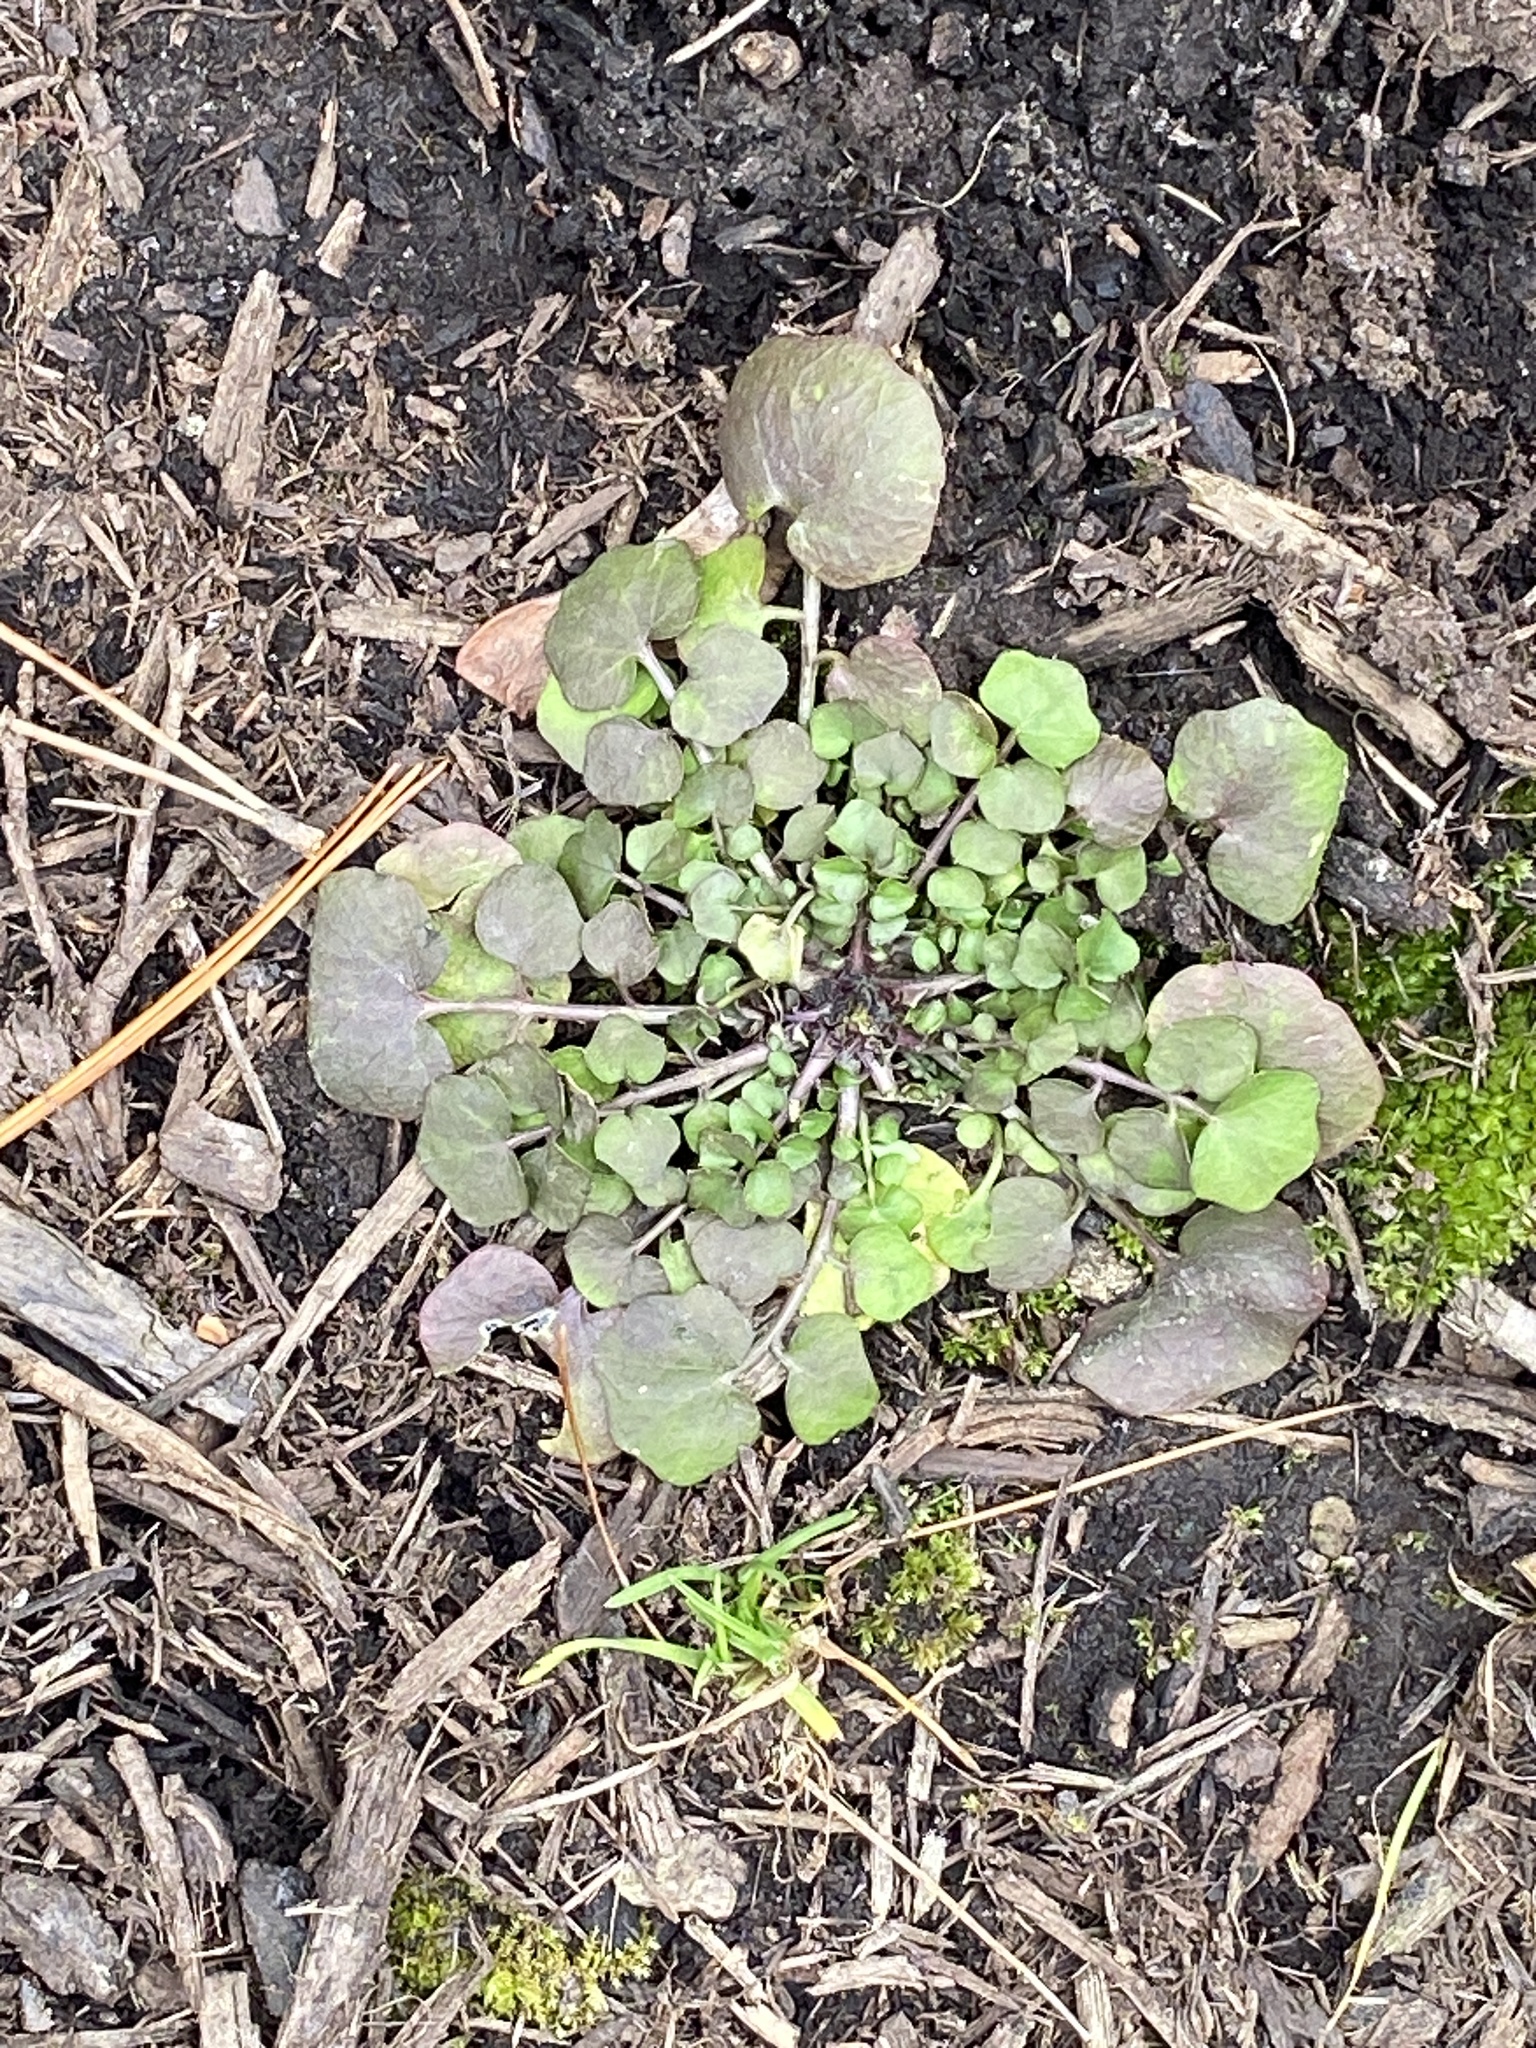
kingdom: Plantae
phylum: Tracheophyta
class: Magnoliopsida
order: Brassicales
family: Brassicaceae
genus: Cardamine
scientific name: Cardamine hirsuta
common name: Hairy bittercress
